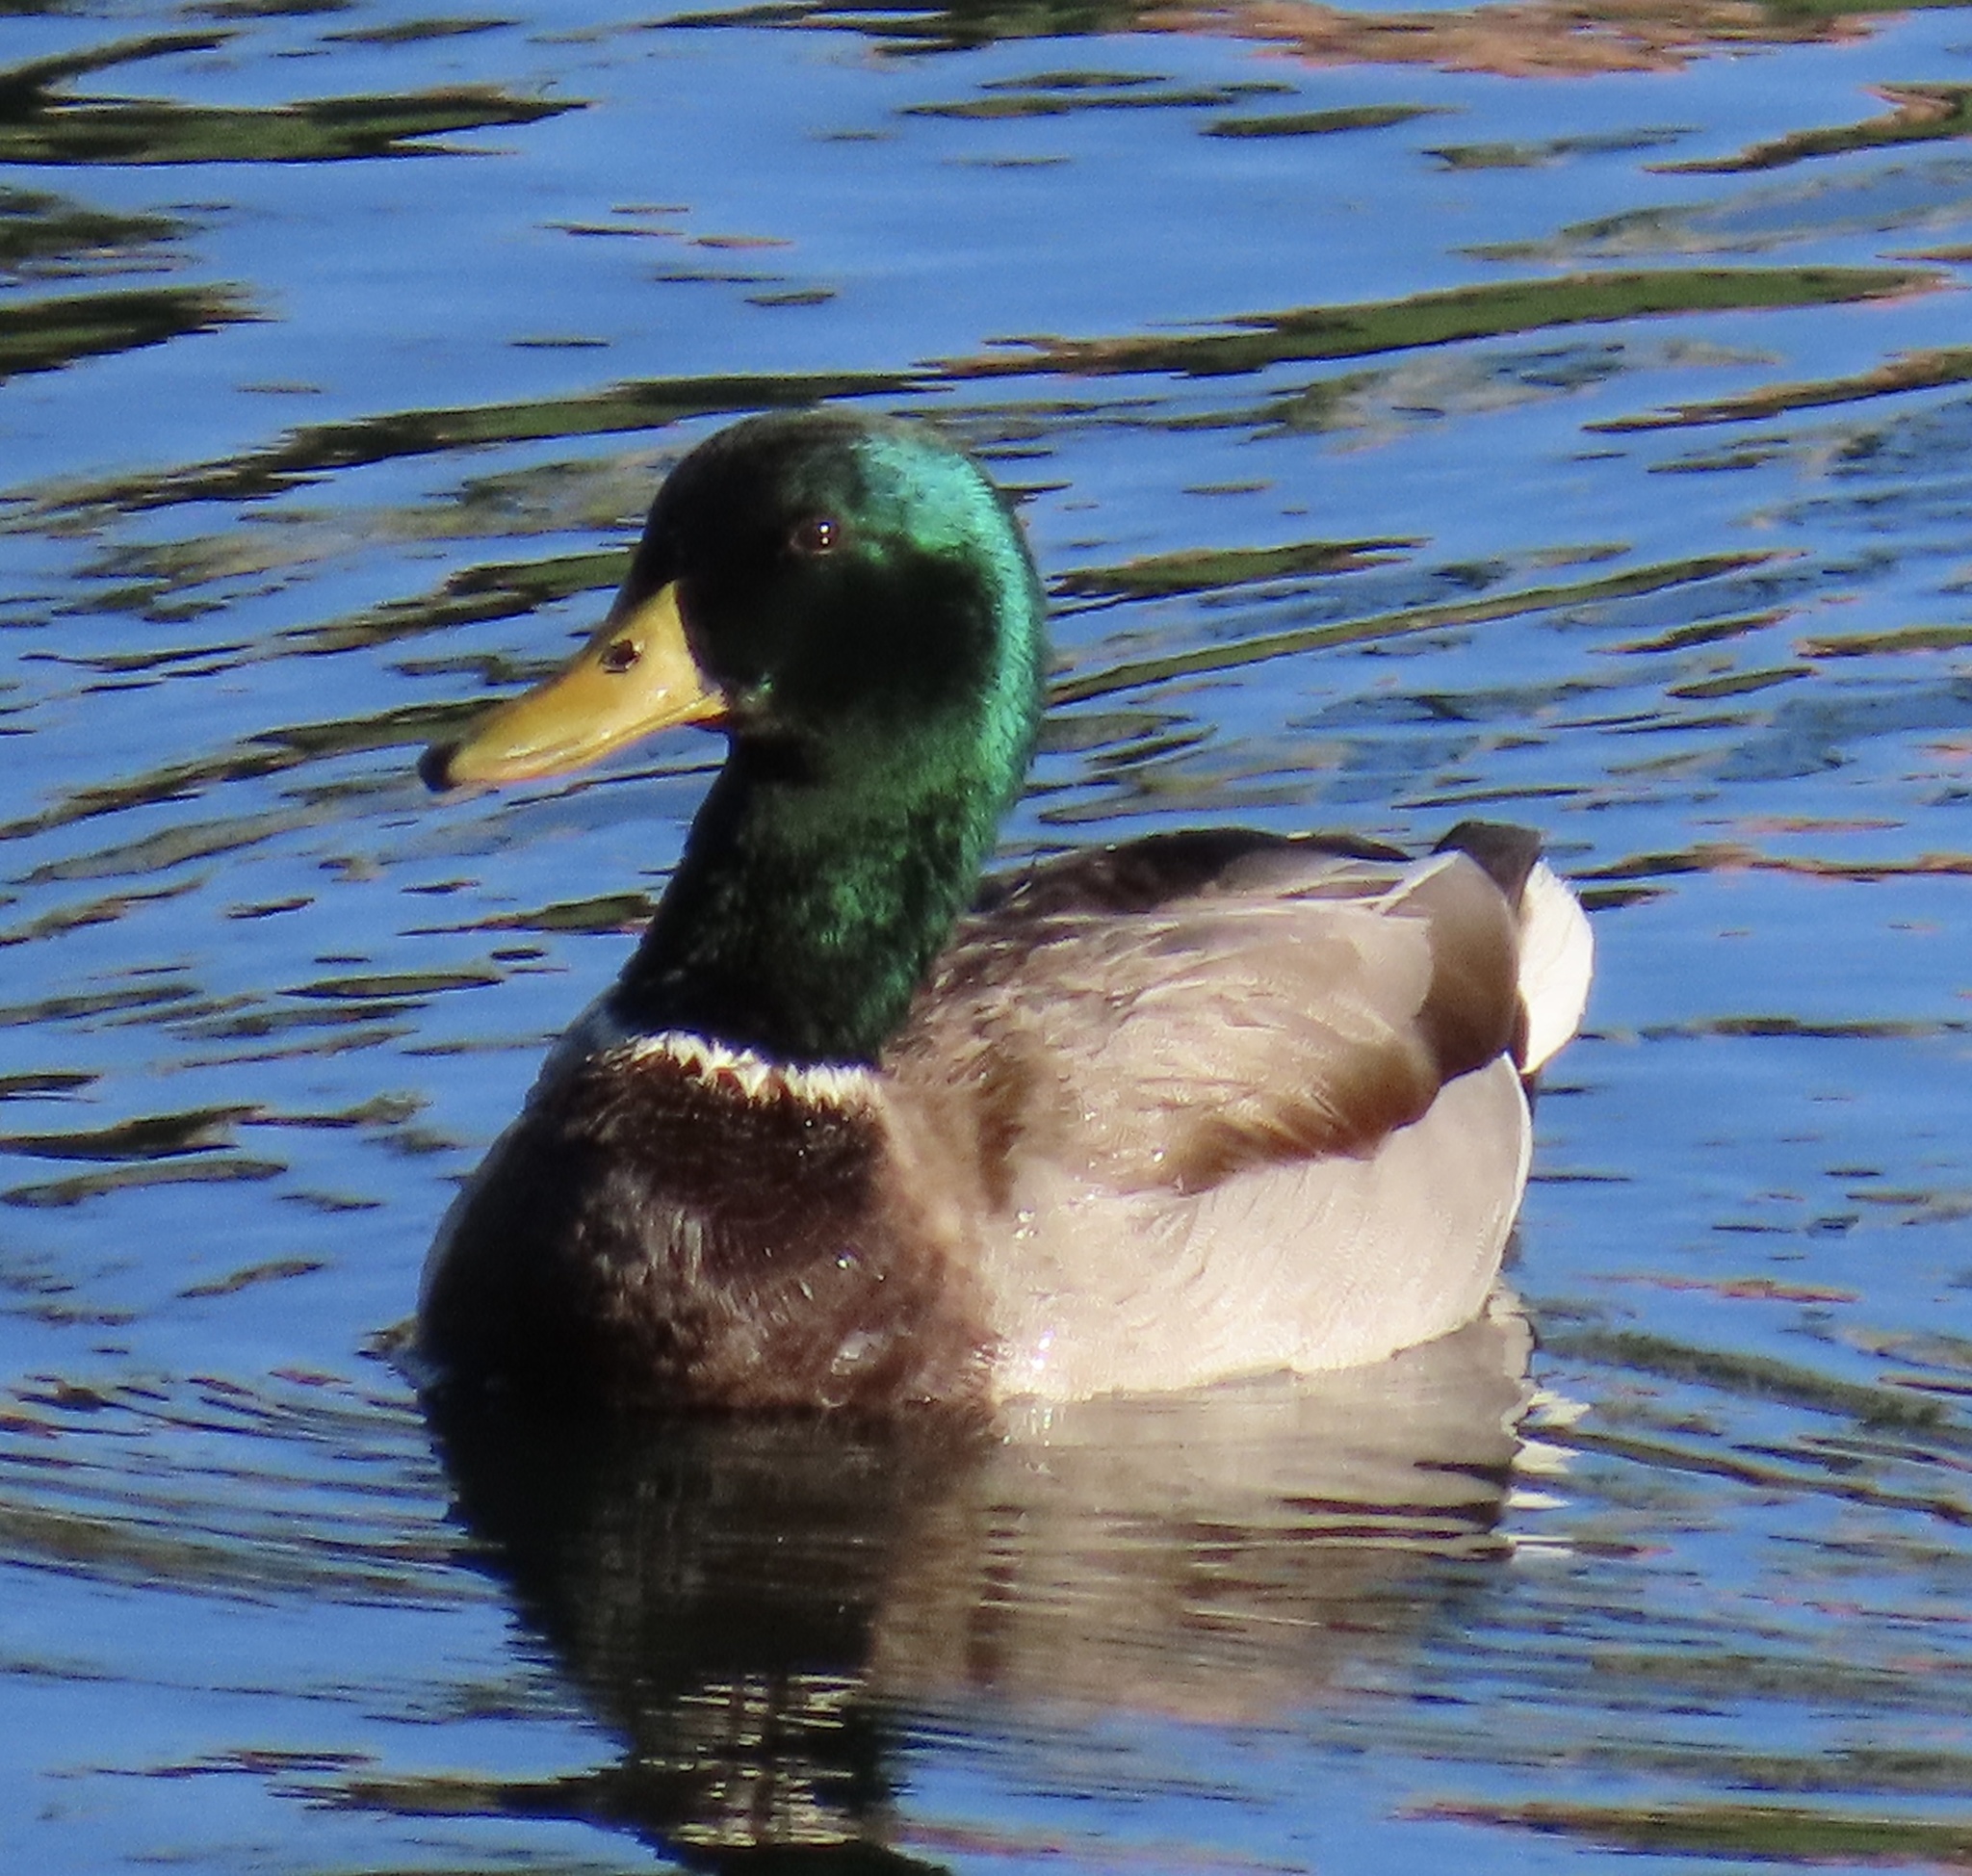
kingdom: Animalia
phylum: Chordata
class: Aves
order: Anseriformes
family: Anatidae
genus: Anas
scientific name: Anas platyrhynchos
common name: Mallard
